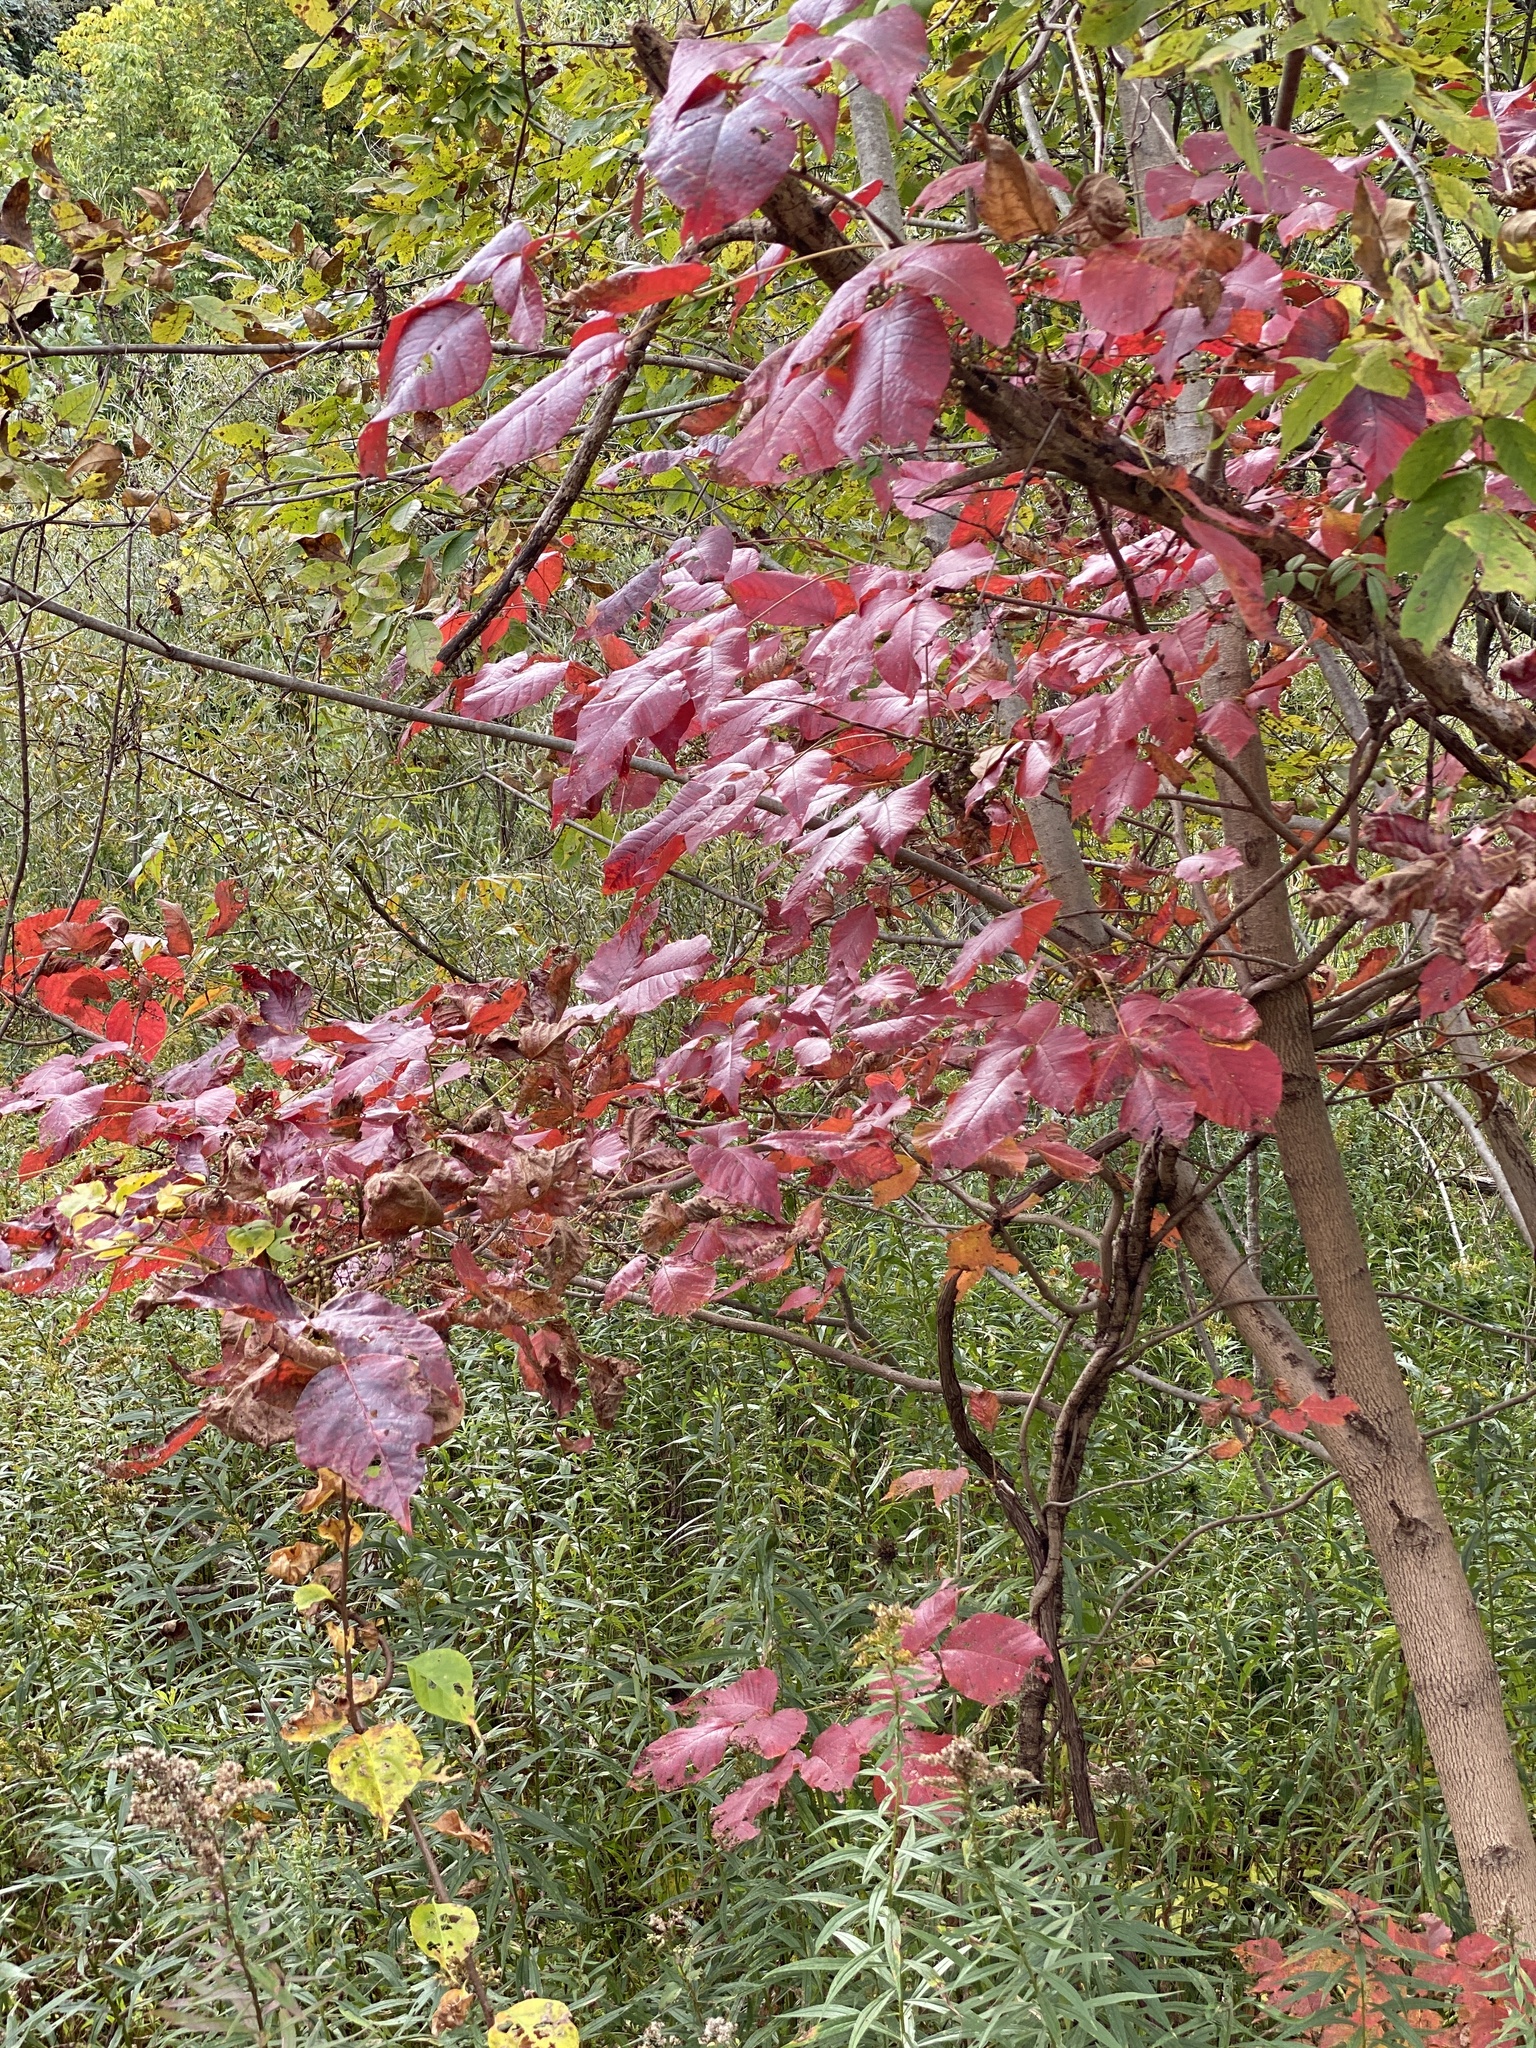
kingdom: Plantae
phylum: Tracheophyta
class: Magnoliopsida
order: Sapindales
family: Anacardiaceae
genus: Toxicodendron
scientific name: Toxicodendron radicans
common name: Poison ivy
